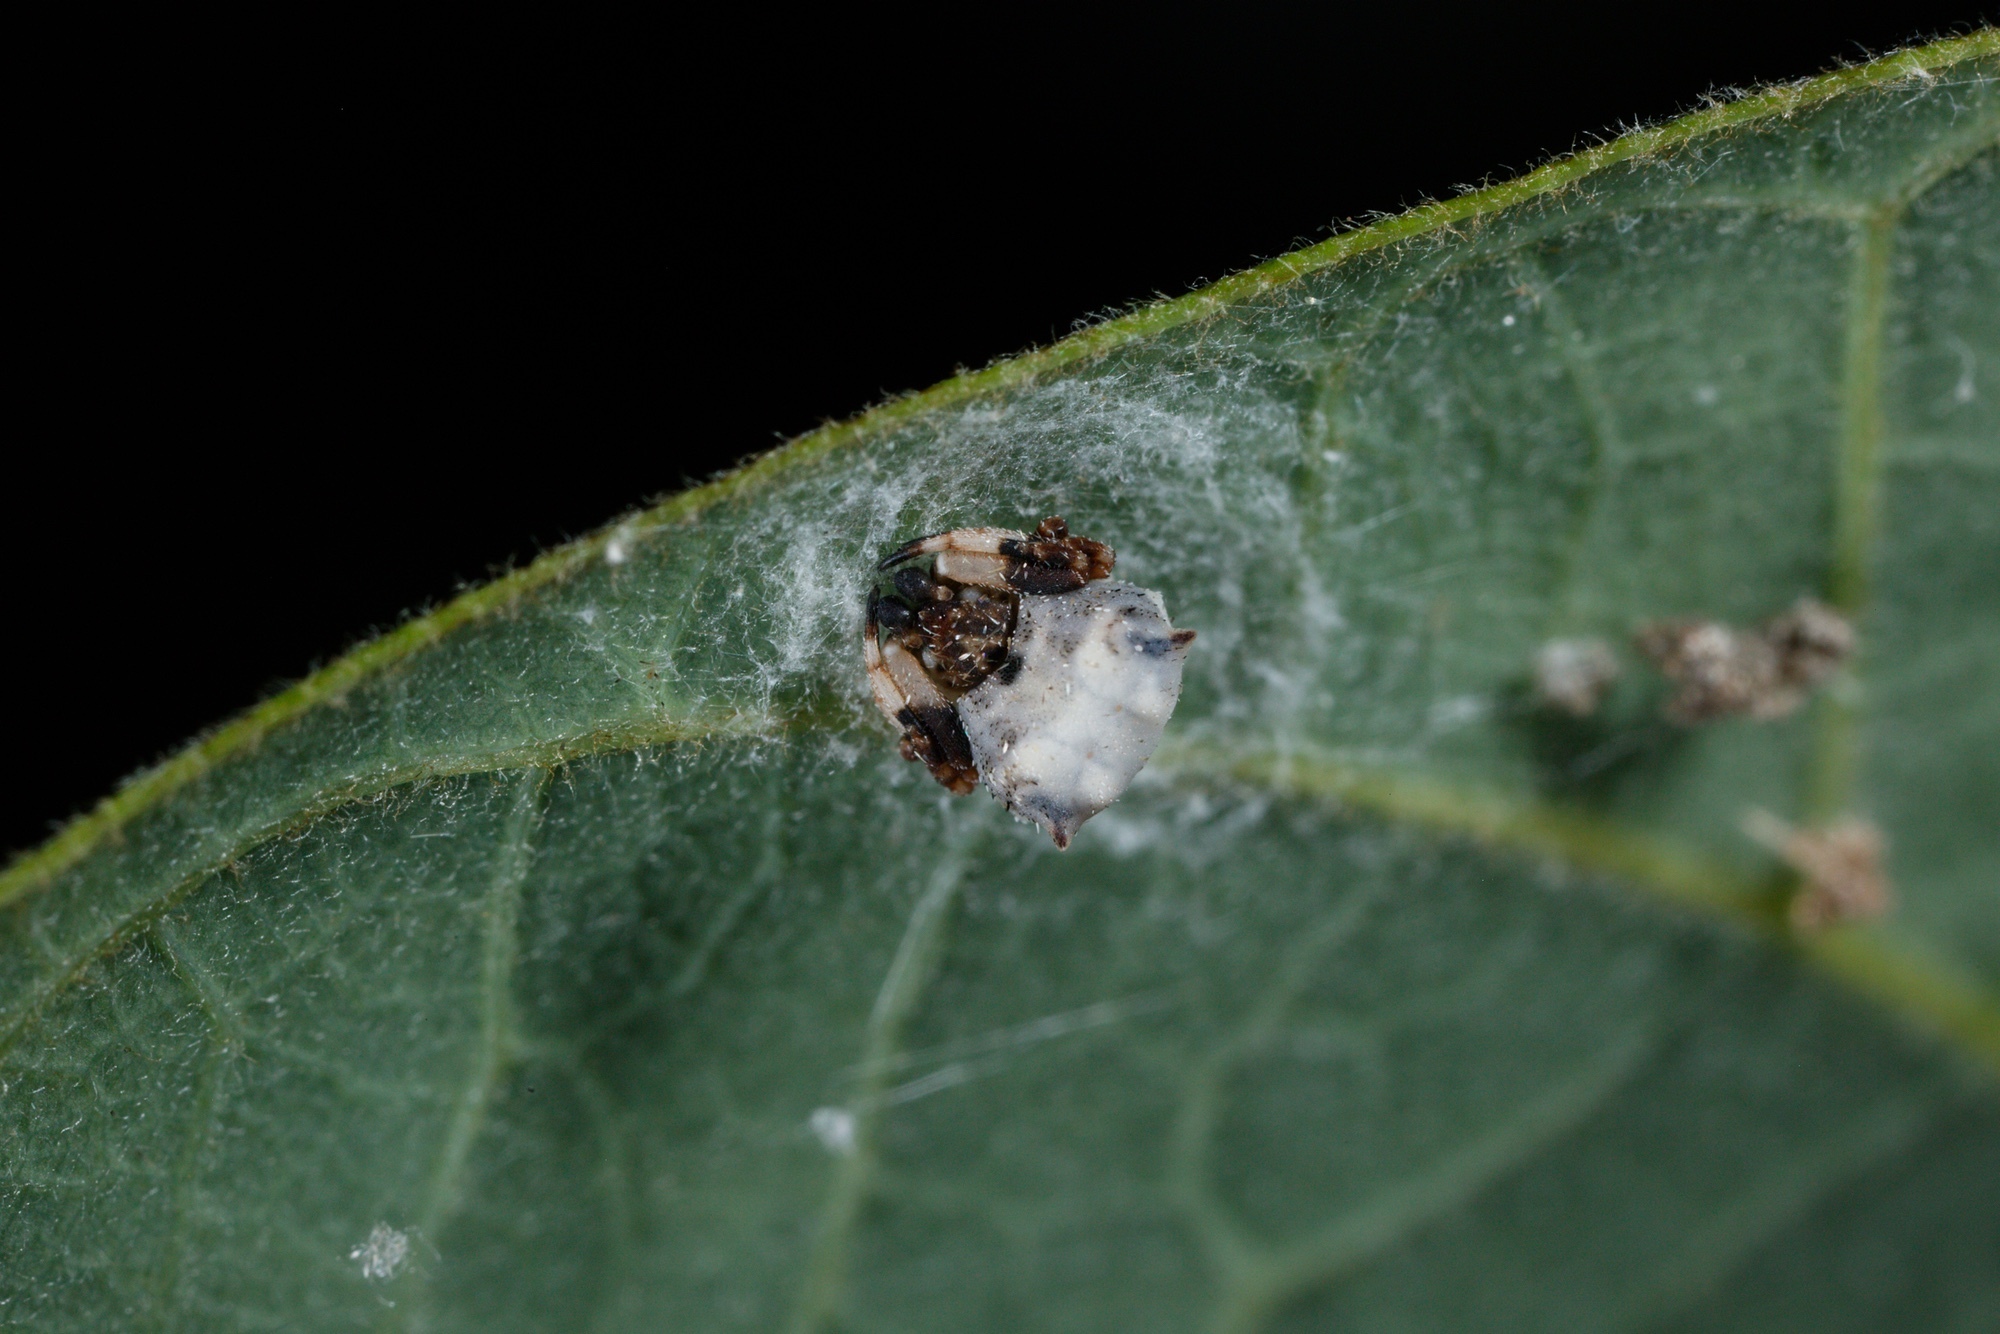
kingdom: Animalia
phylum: Arthropoda
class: Arachnida
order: Araneae
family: Araneidae
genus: Celaenia
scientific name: Celaenia excavata
